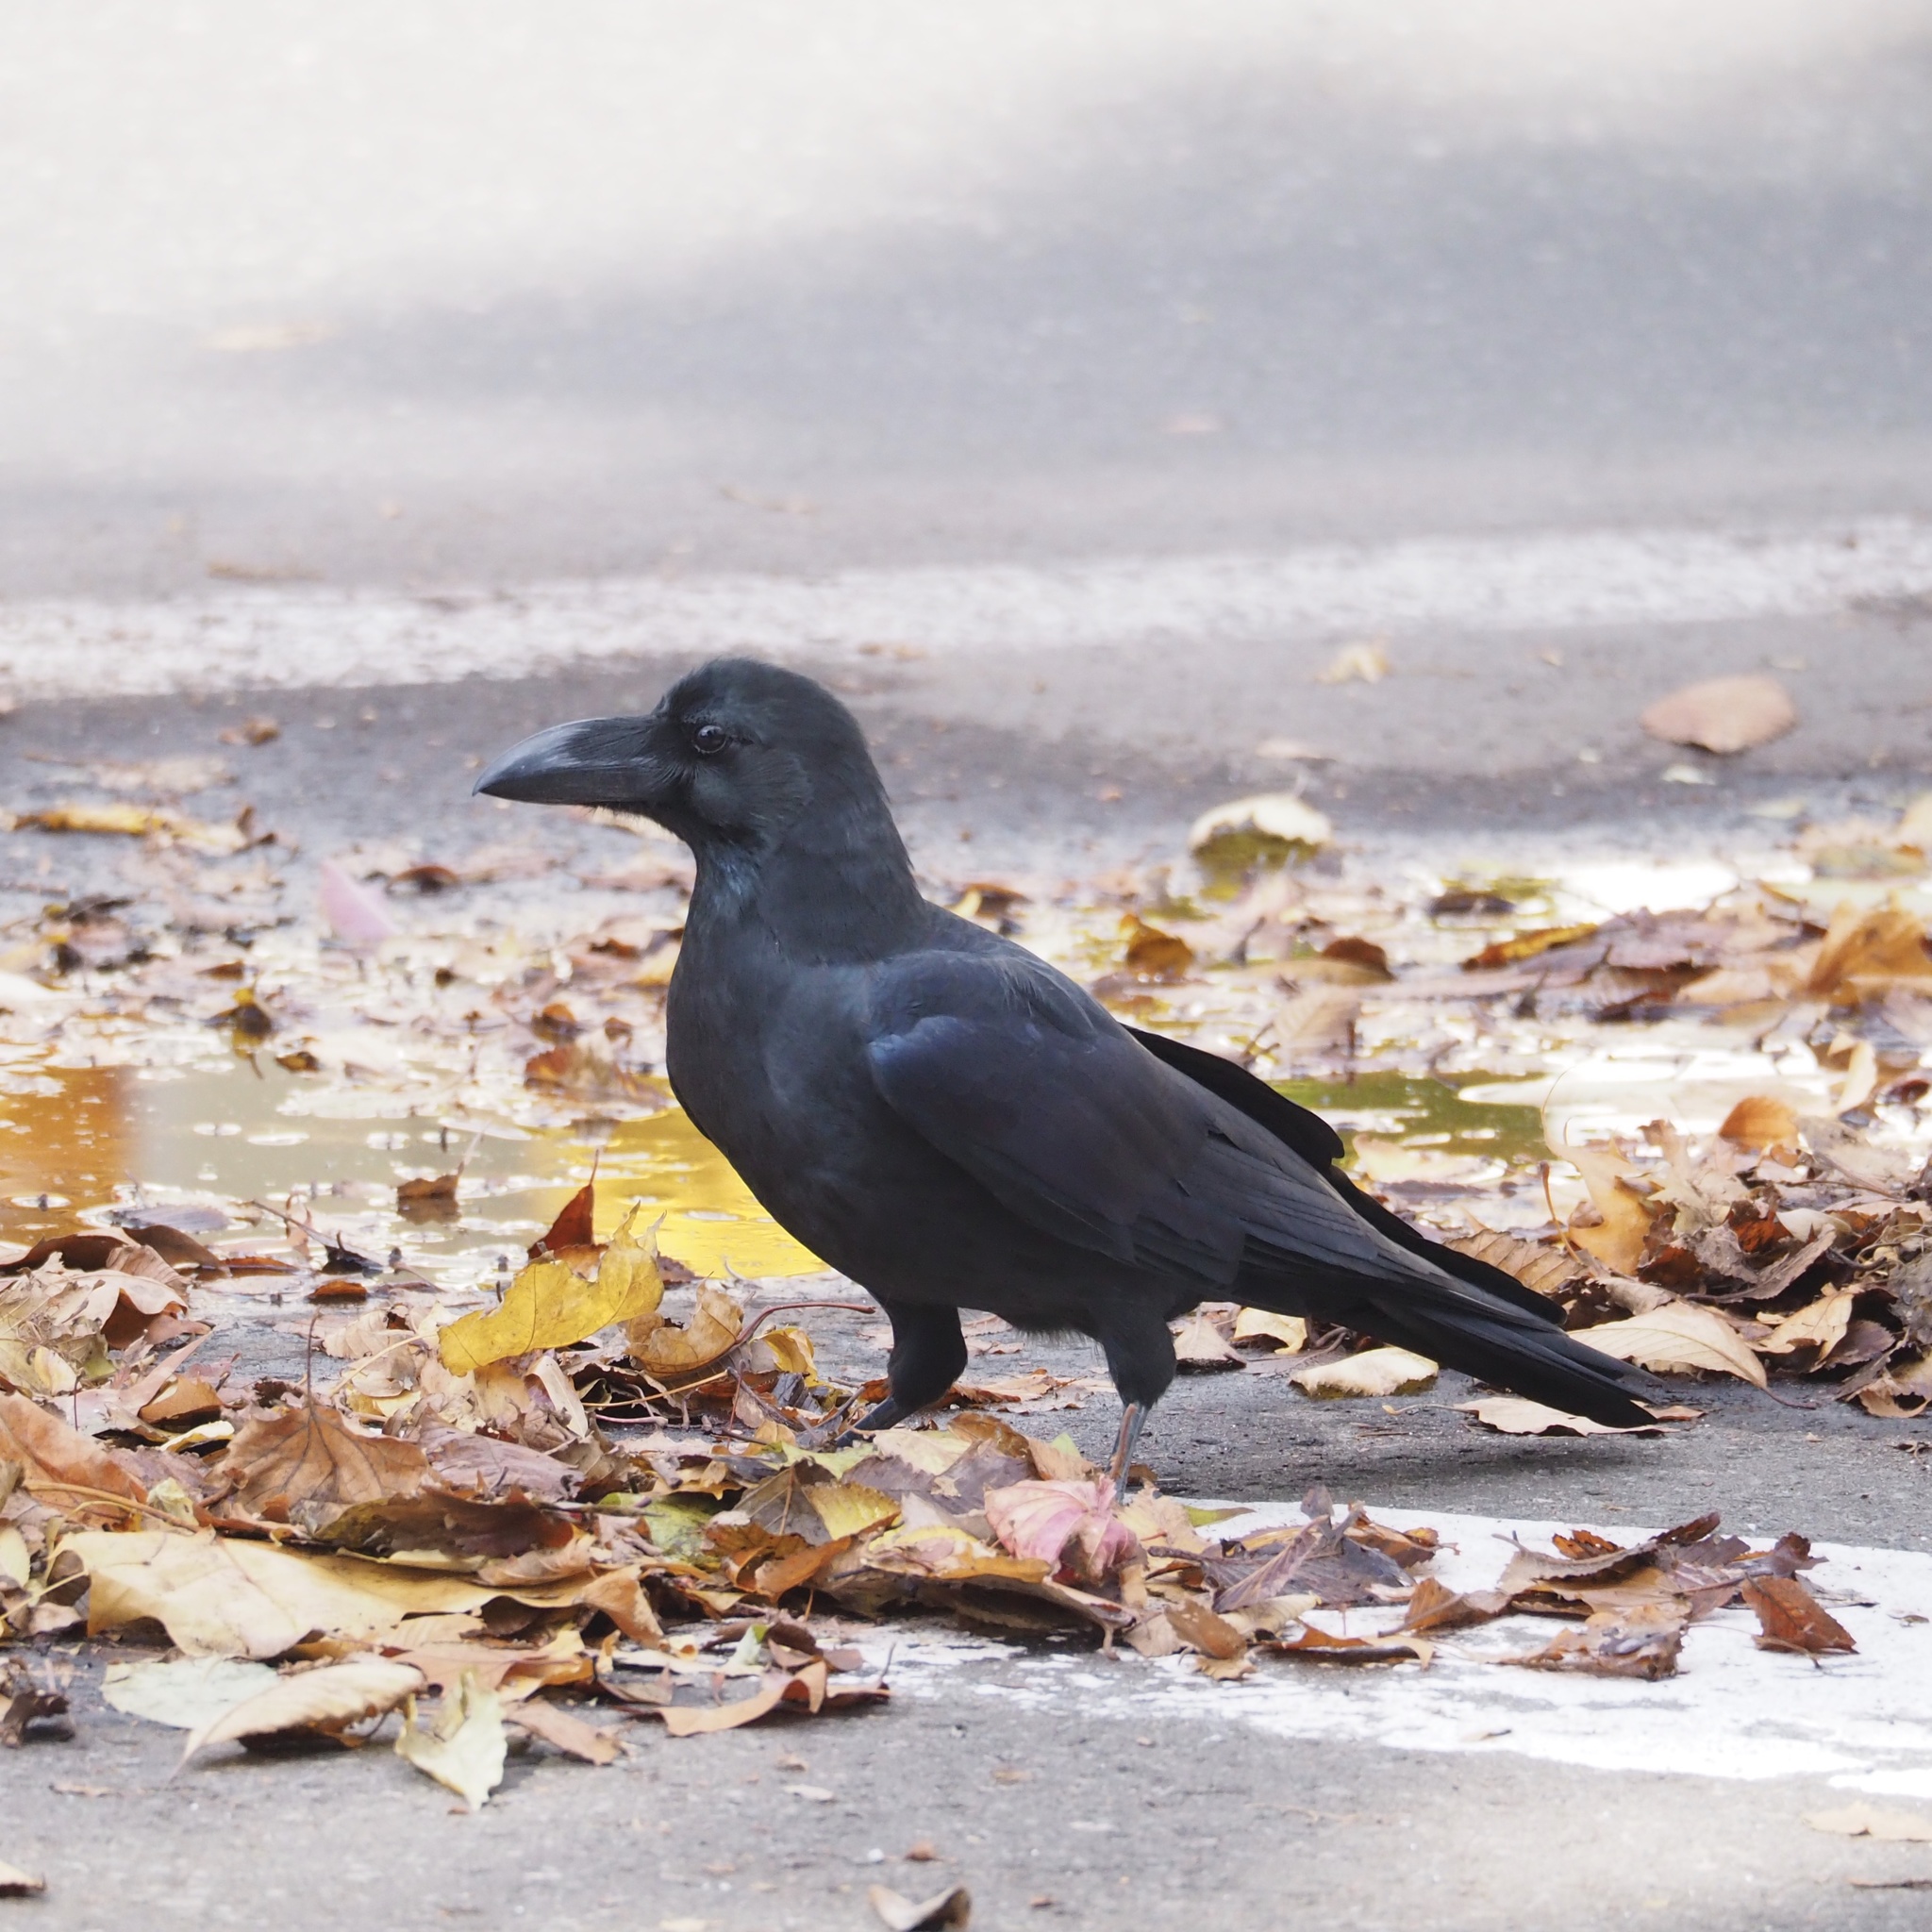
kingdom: Animalia
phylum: Chordata
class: Aves
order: Passeriformes
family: Corvidae
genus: Corvus
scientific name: Corvus macrorhynchos
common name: Large-billed crow
